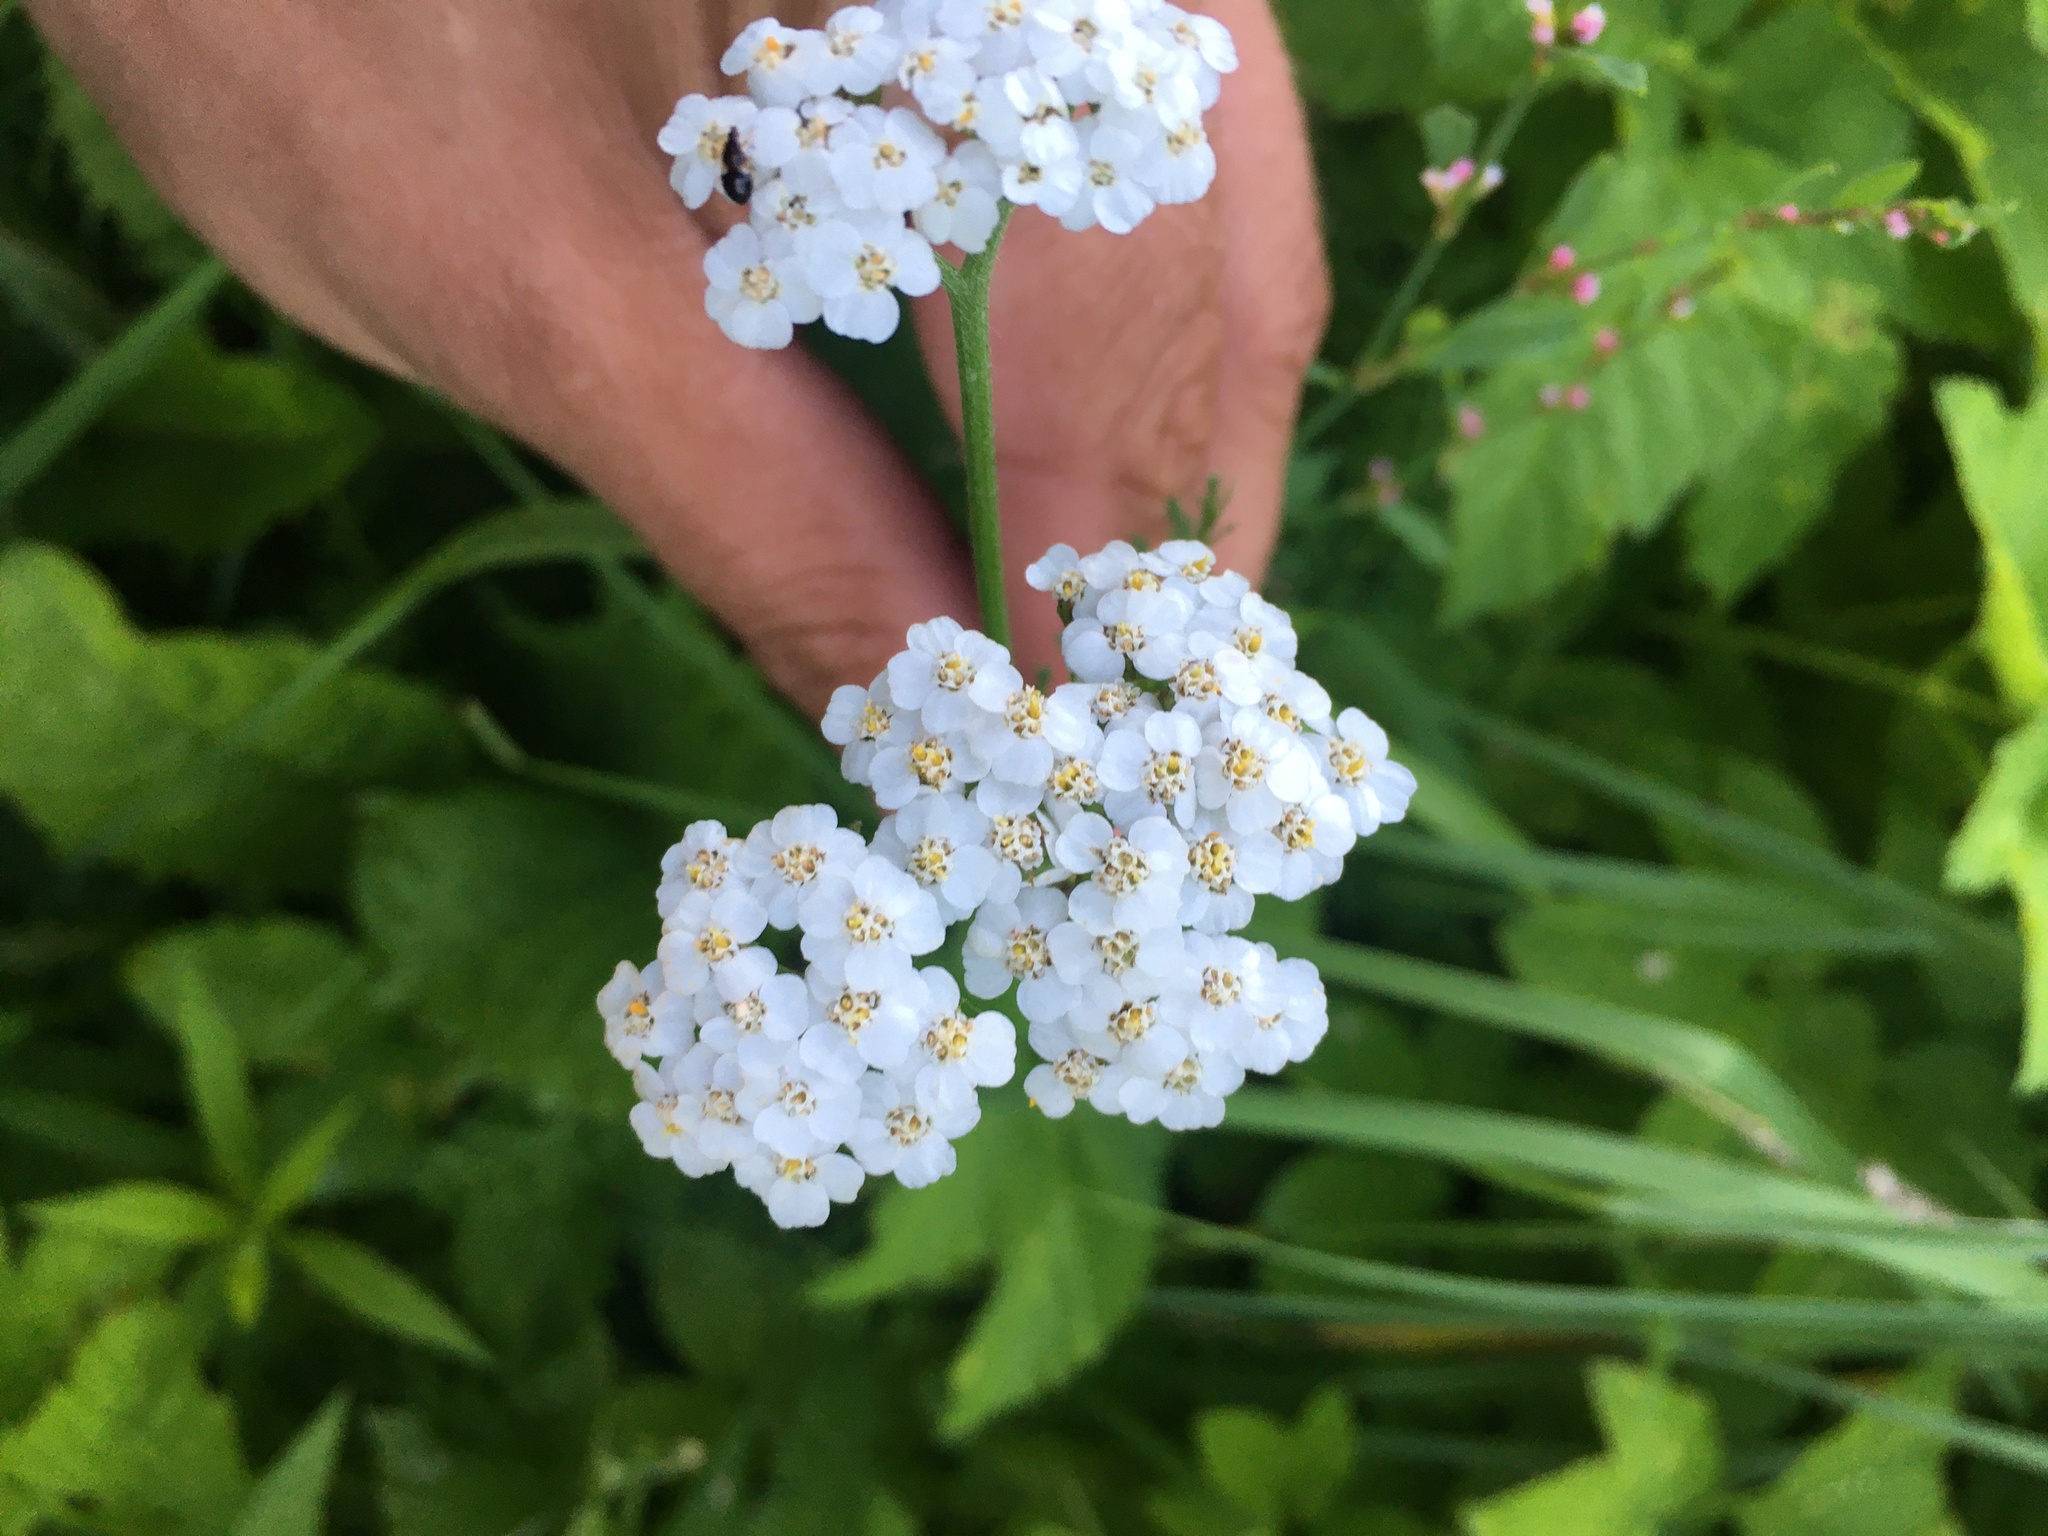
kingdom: Plantae
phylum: Tracheophyta
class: Magnoliopsida
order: Asterales
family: Asteraceae
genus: Achillea
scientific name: Achillea millefolium
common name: Yarrow
